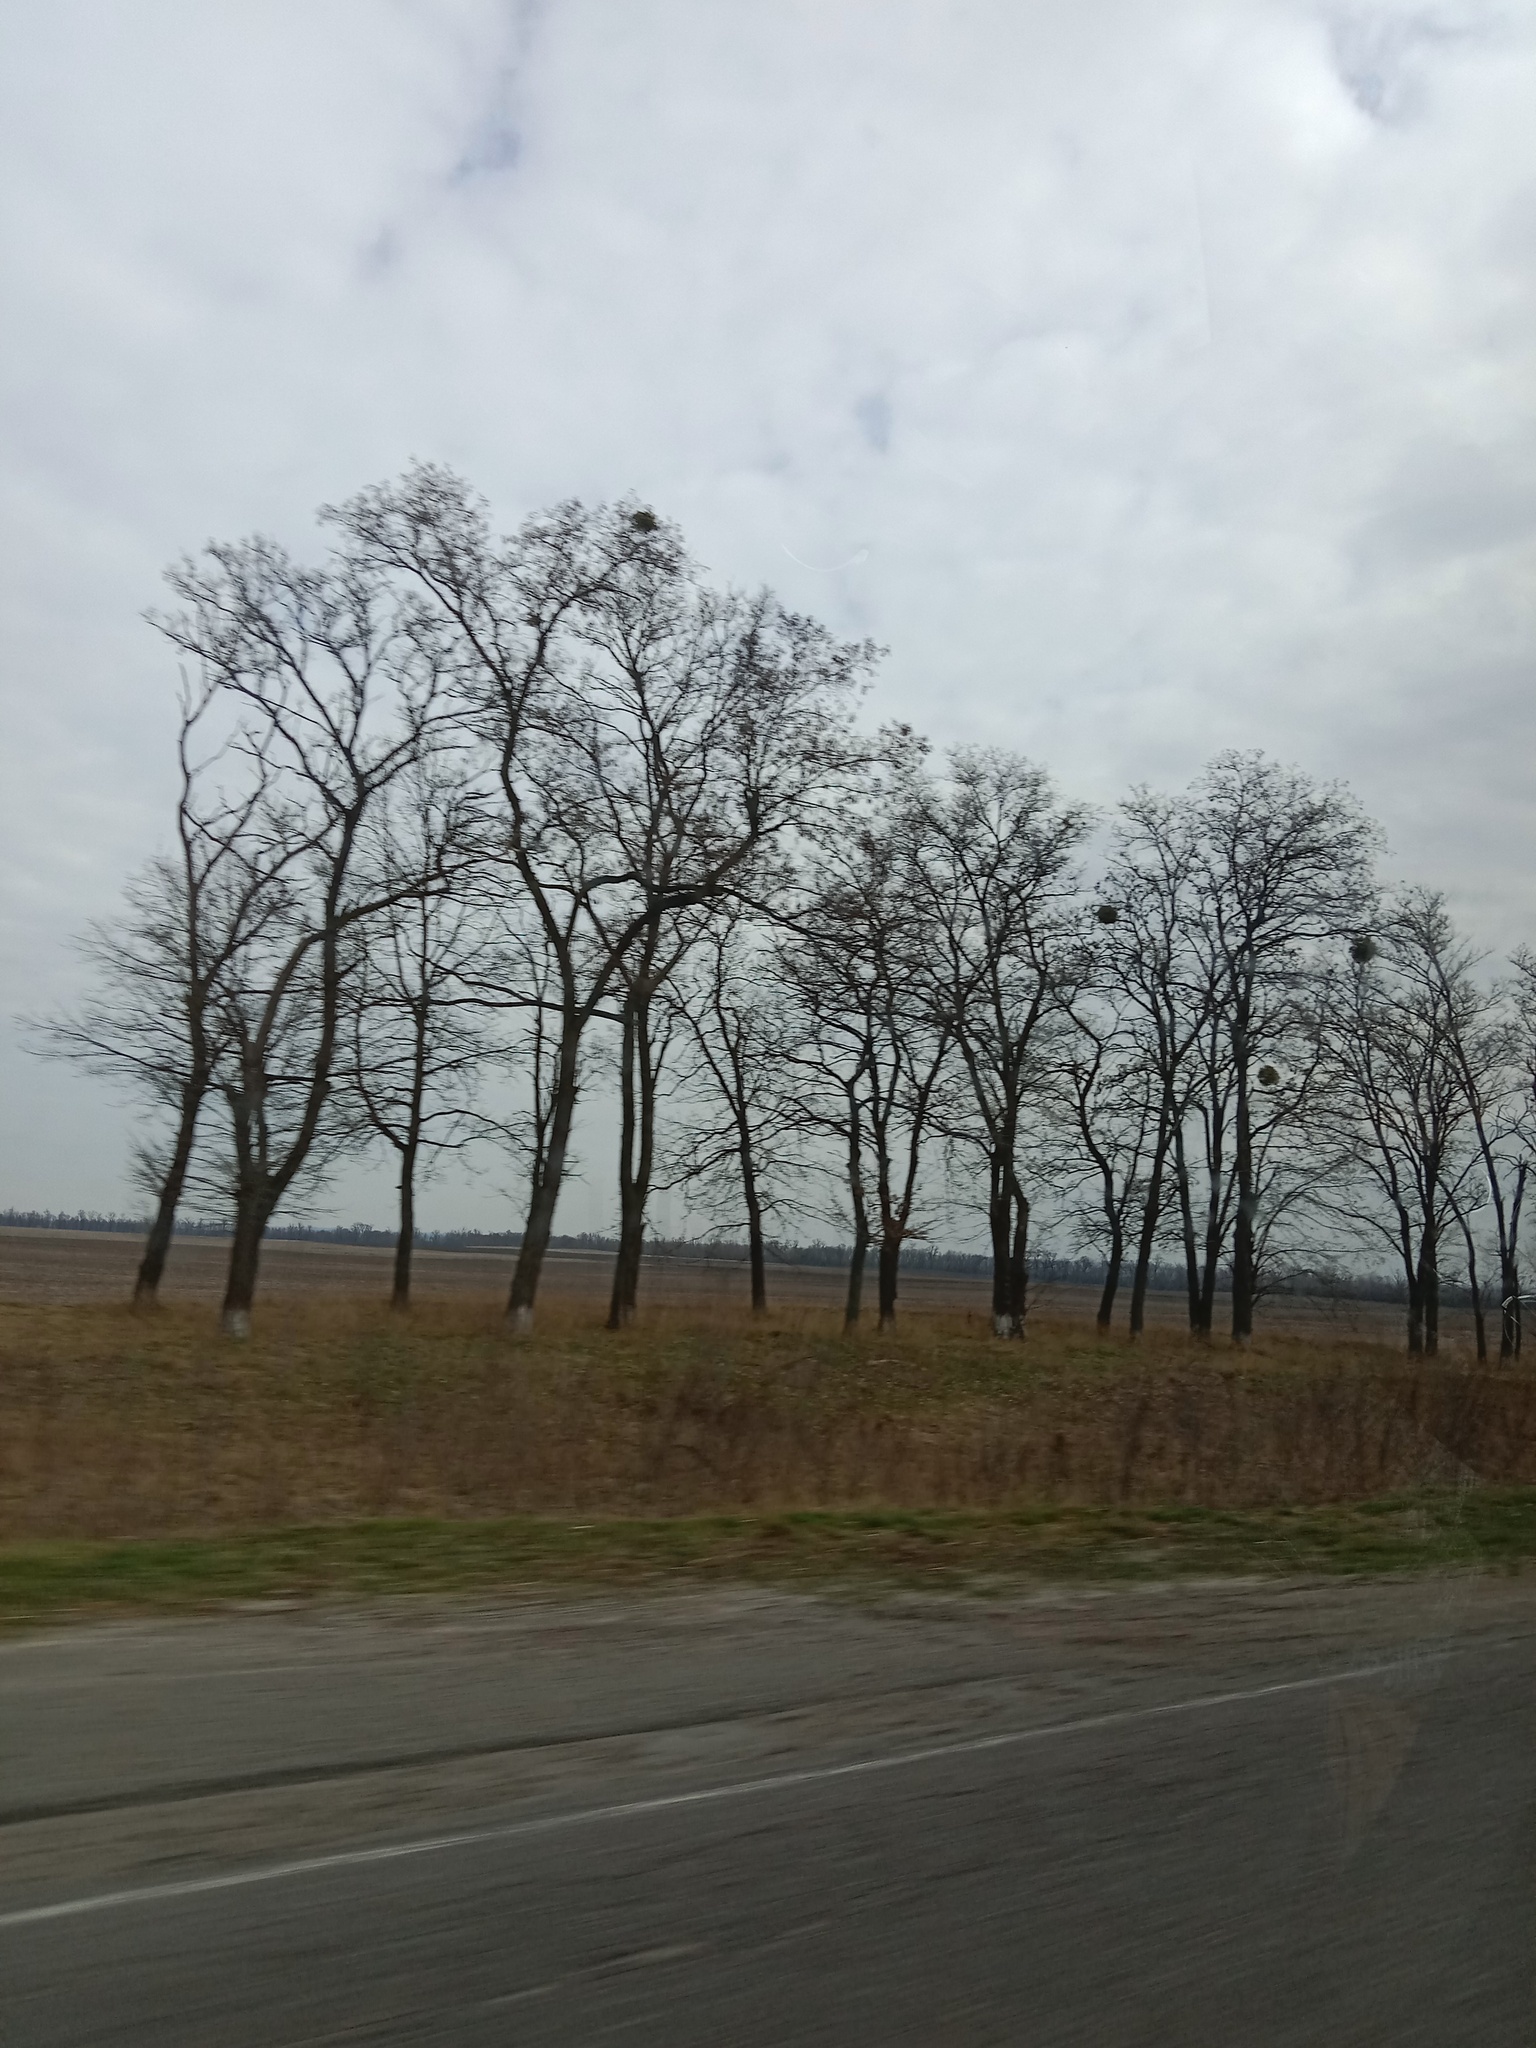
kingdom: Plantae
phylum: Tracheophyta
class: Magnoliopsida
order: Santalales
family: Viscaceae
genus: Viscum
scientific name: Viscum album
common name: Mistletoe
